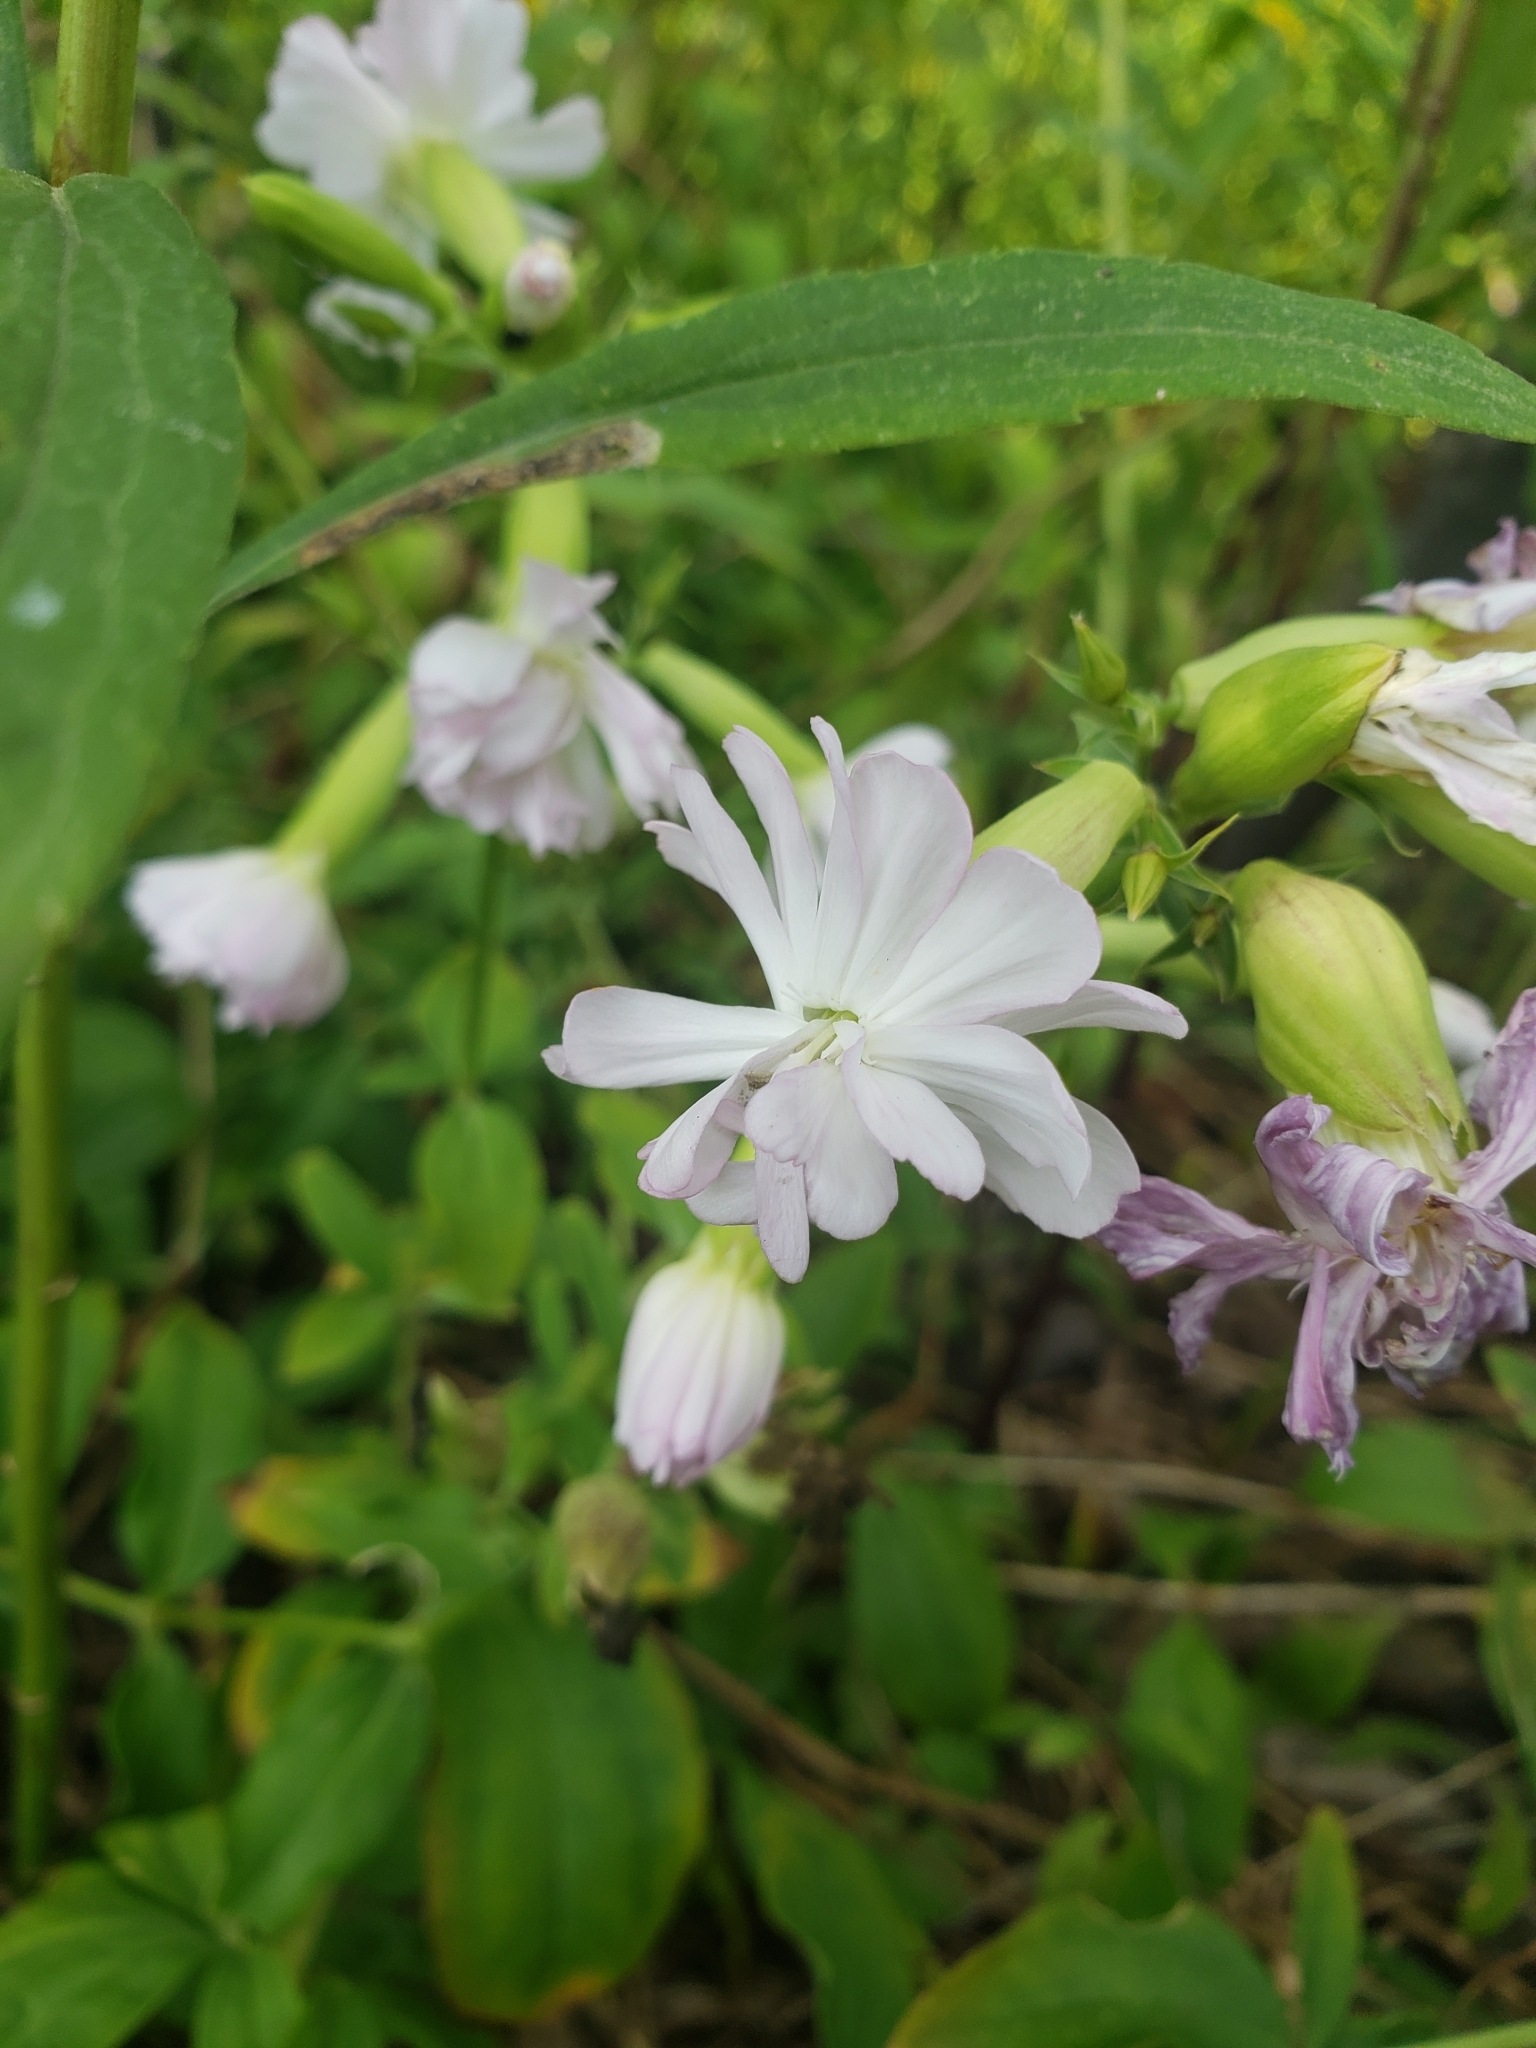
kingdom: Plantae
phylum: Tracheophyta
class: Magnoliopsida
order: Caryophyllales
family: Caryophyllaceae
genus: Saponaria
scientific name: Saponaria officinalis
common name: Soapwort
